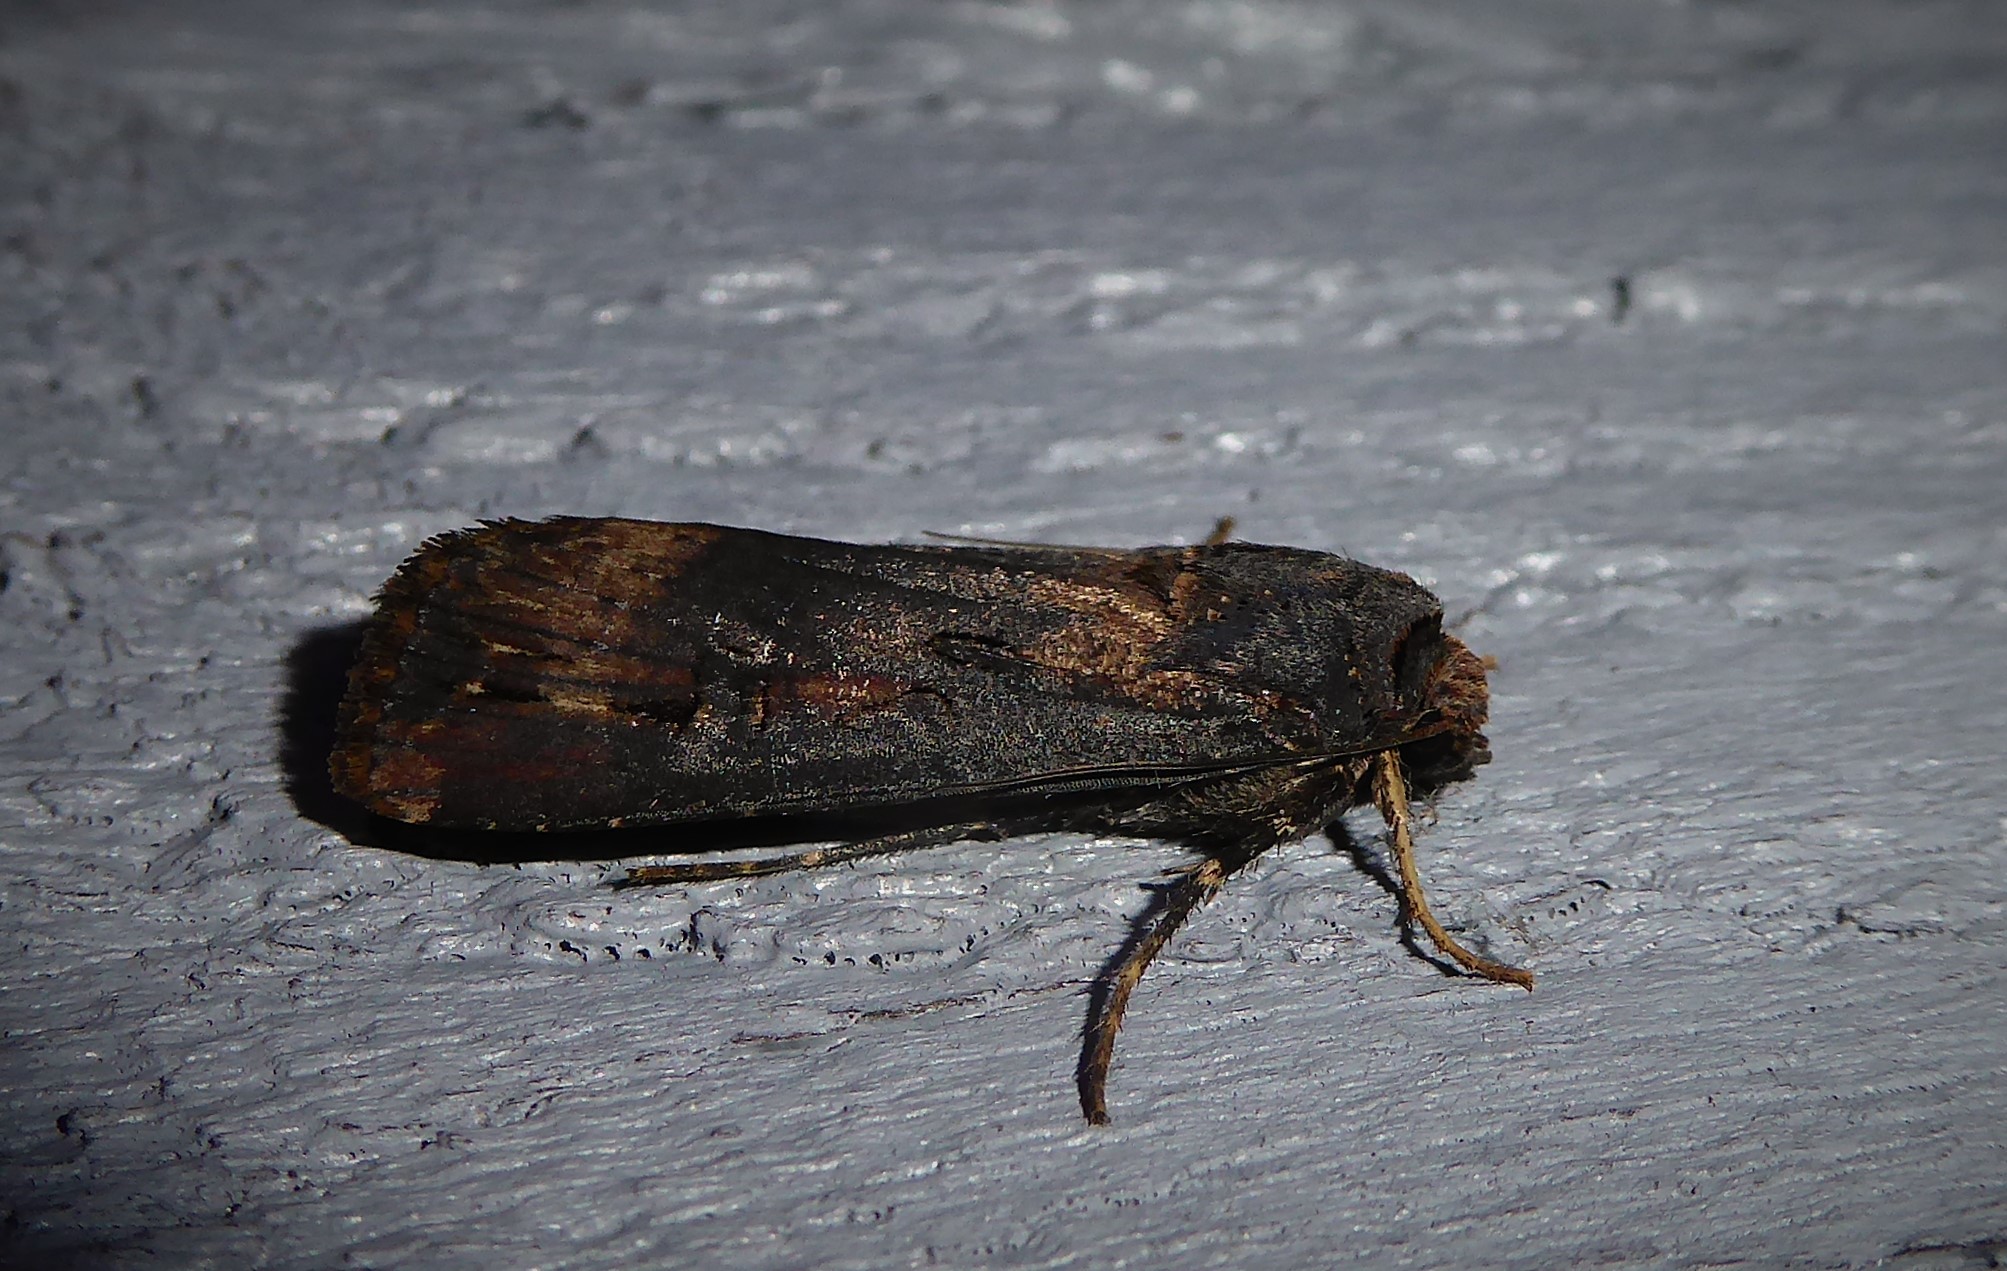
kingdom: Animalia
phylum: Arthropoda
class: Insecta
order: Lepidoptera
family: Noctuidae
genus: Agrotis
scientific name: Agrotis ipsilon
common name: Dark sword-grass
